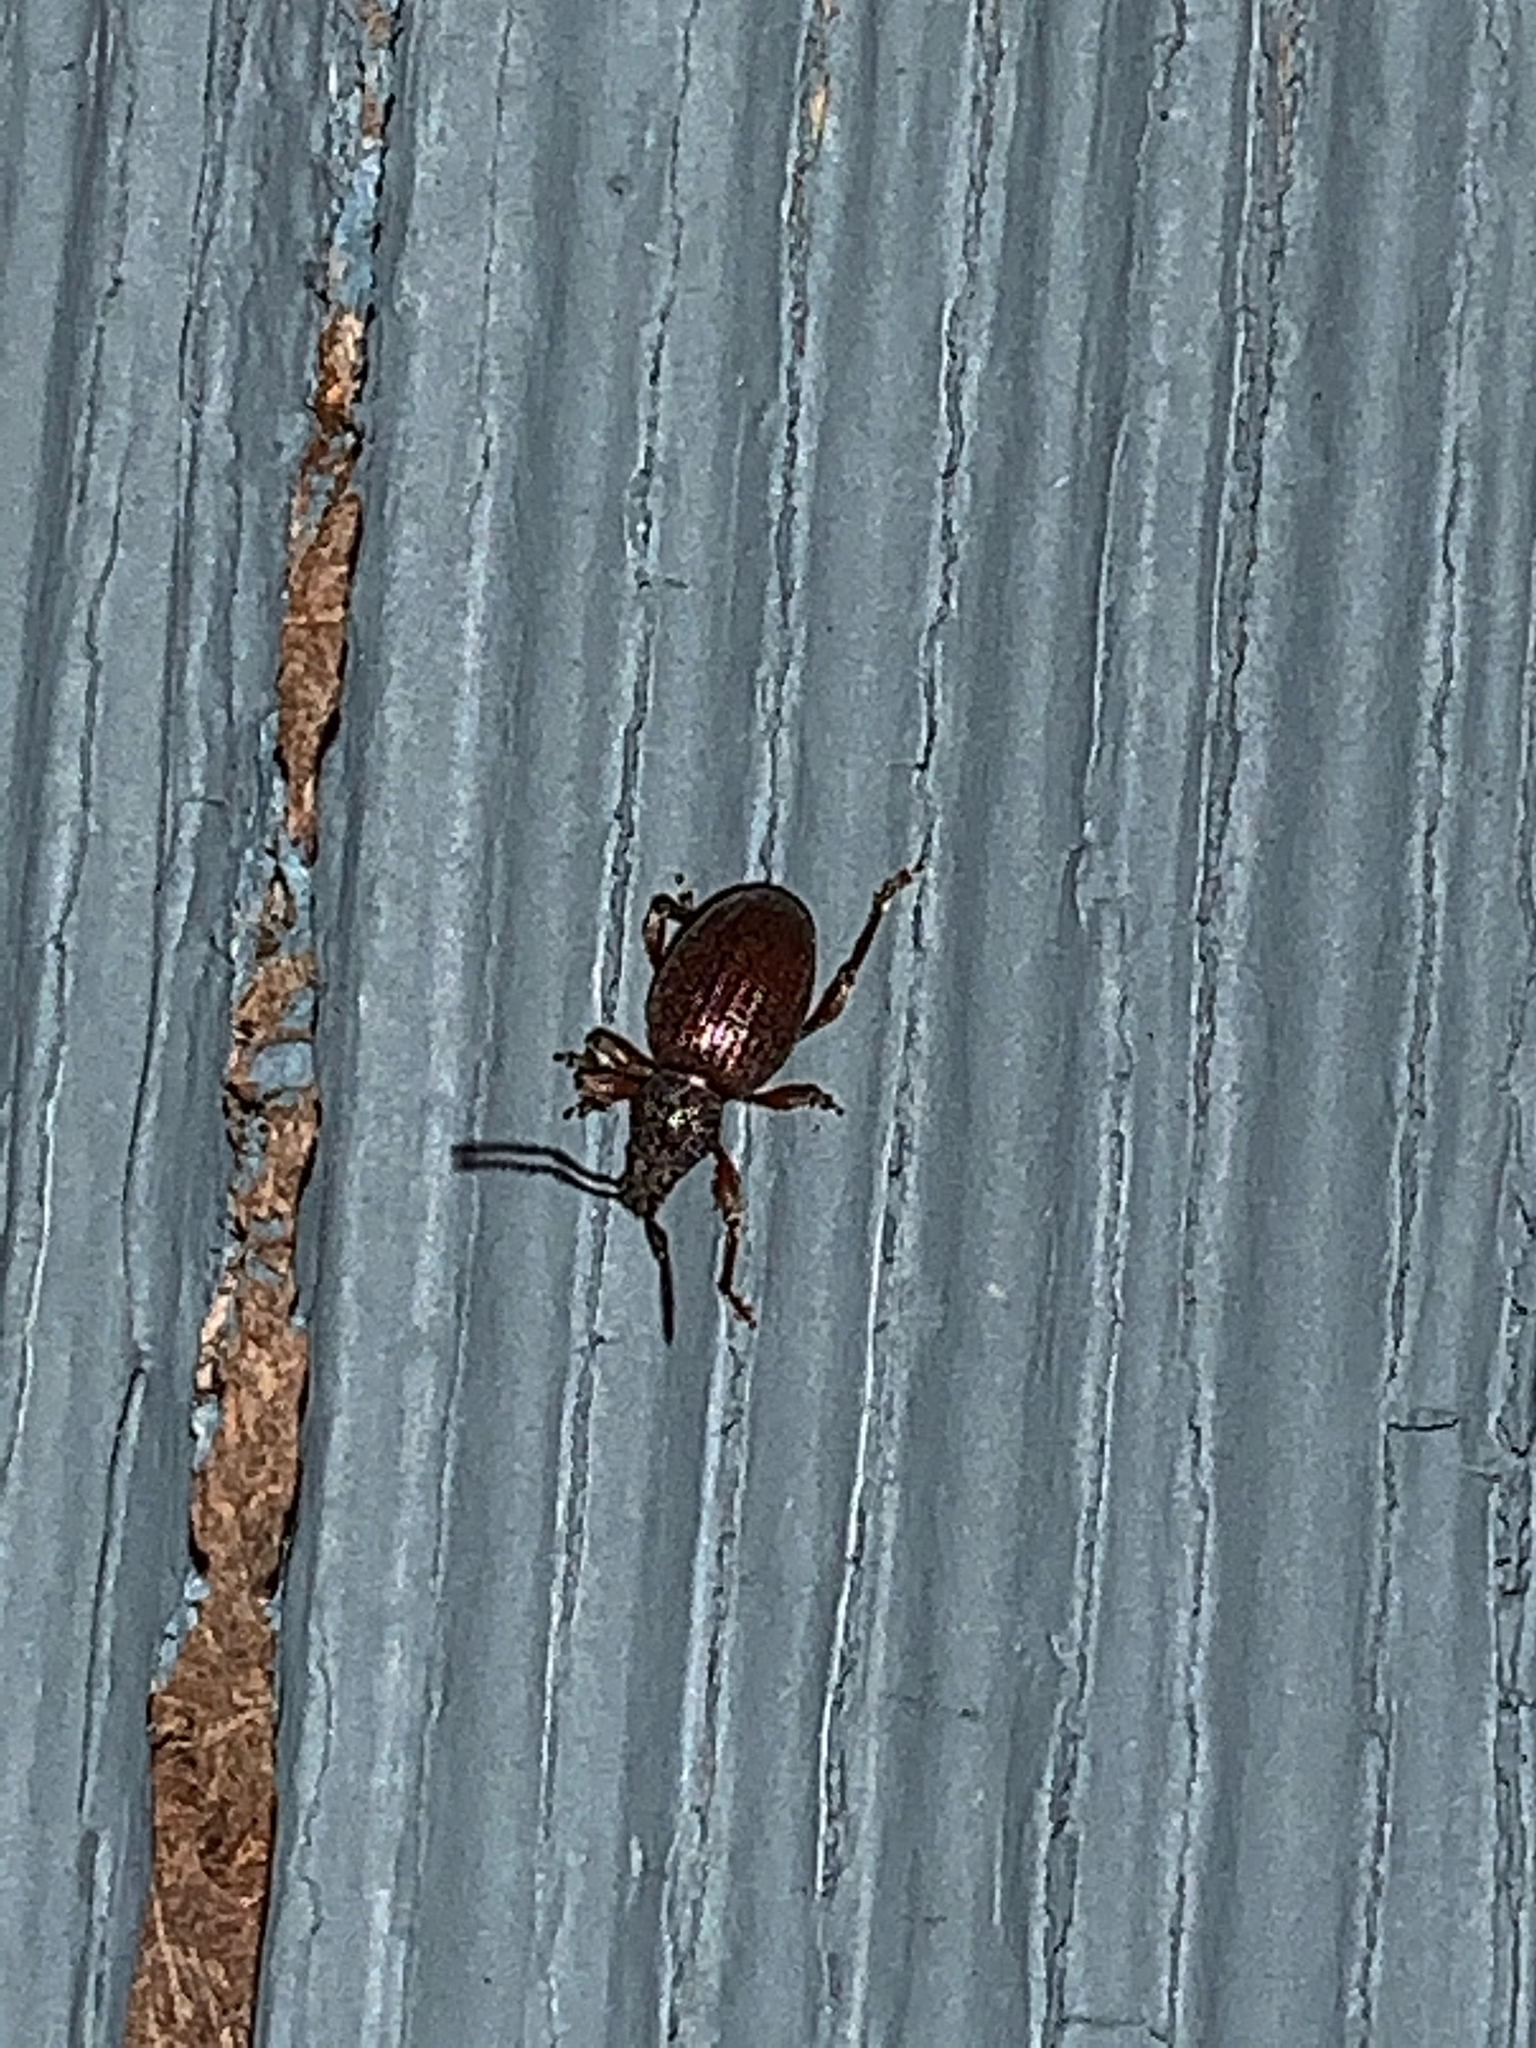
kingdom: Animalia
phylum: Arthropoda
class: Insecta
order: Coleoptera
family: Curculionidae
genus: Otiorhynchus
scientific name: Otiorhynchus ovatus
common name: Strawberry root weevil
